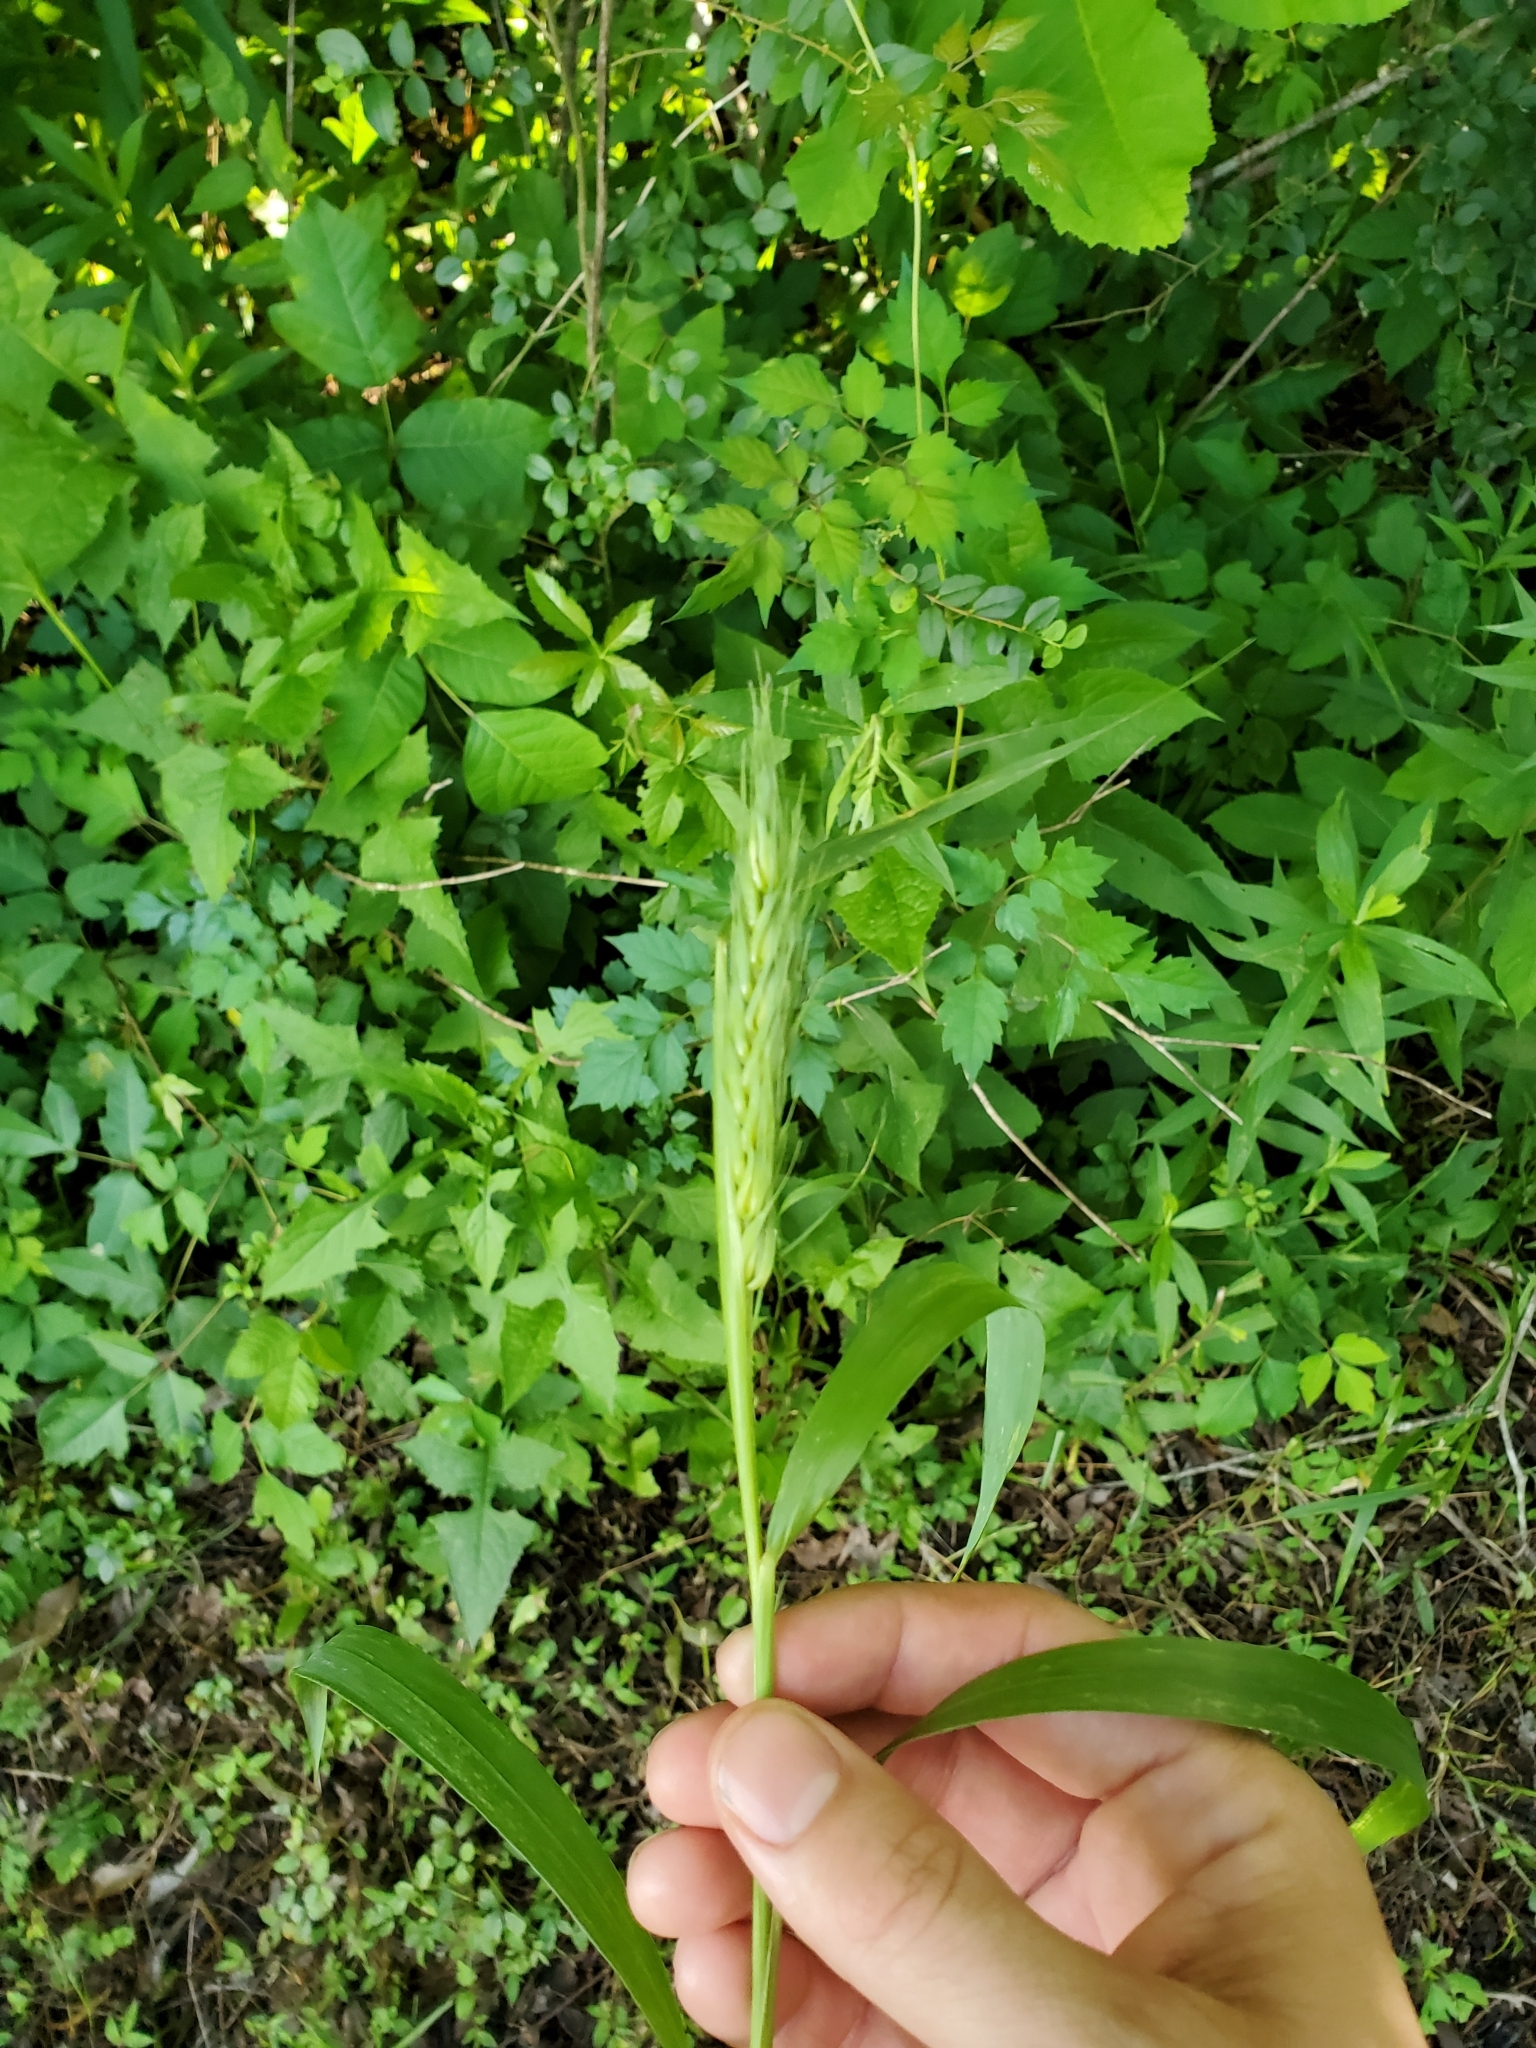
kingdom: Plantae
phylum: Tracheophyta
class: Liliopsida
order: Poales
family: Poaceae
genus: Elymus
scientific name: Elymus virginicus
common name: Common eastern wildrye
